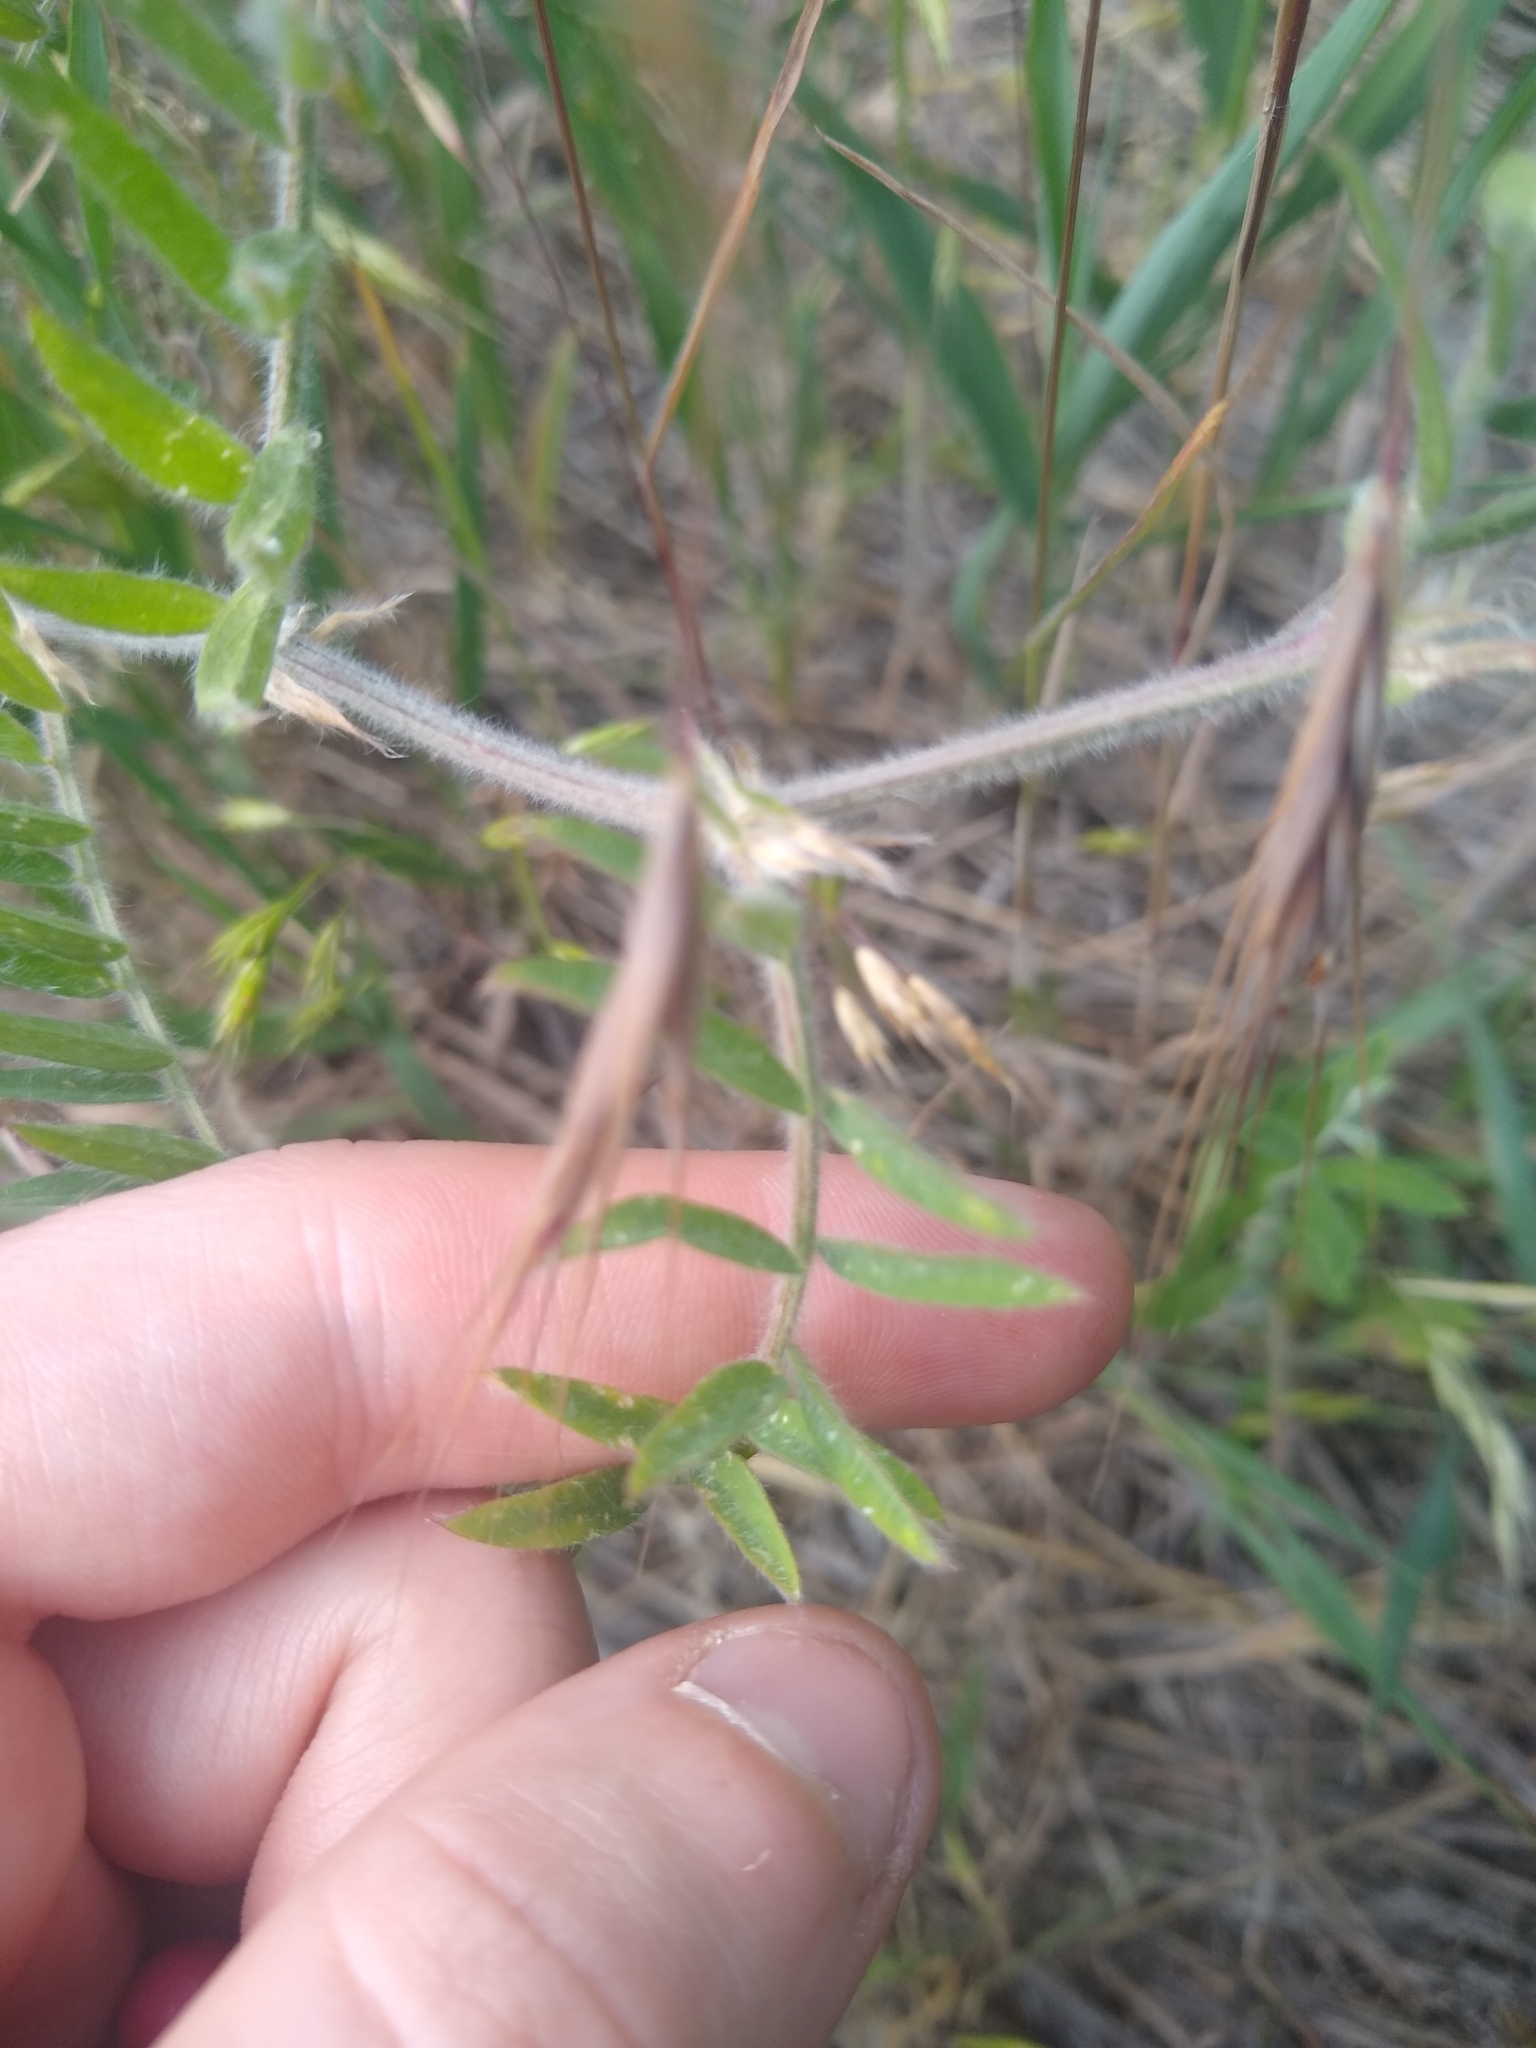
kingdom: Plantae
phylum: Tracheophyta
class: Magnoliopsida
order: Fabales
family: Fabaceae
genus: Vicia
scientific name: Vicia villosa
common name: Fodder vetch
